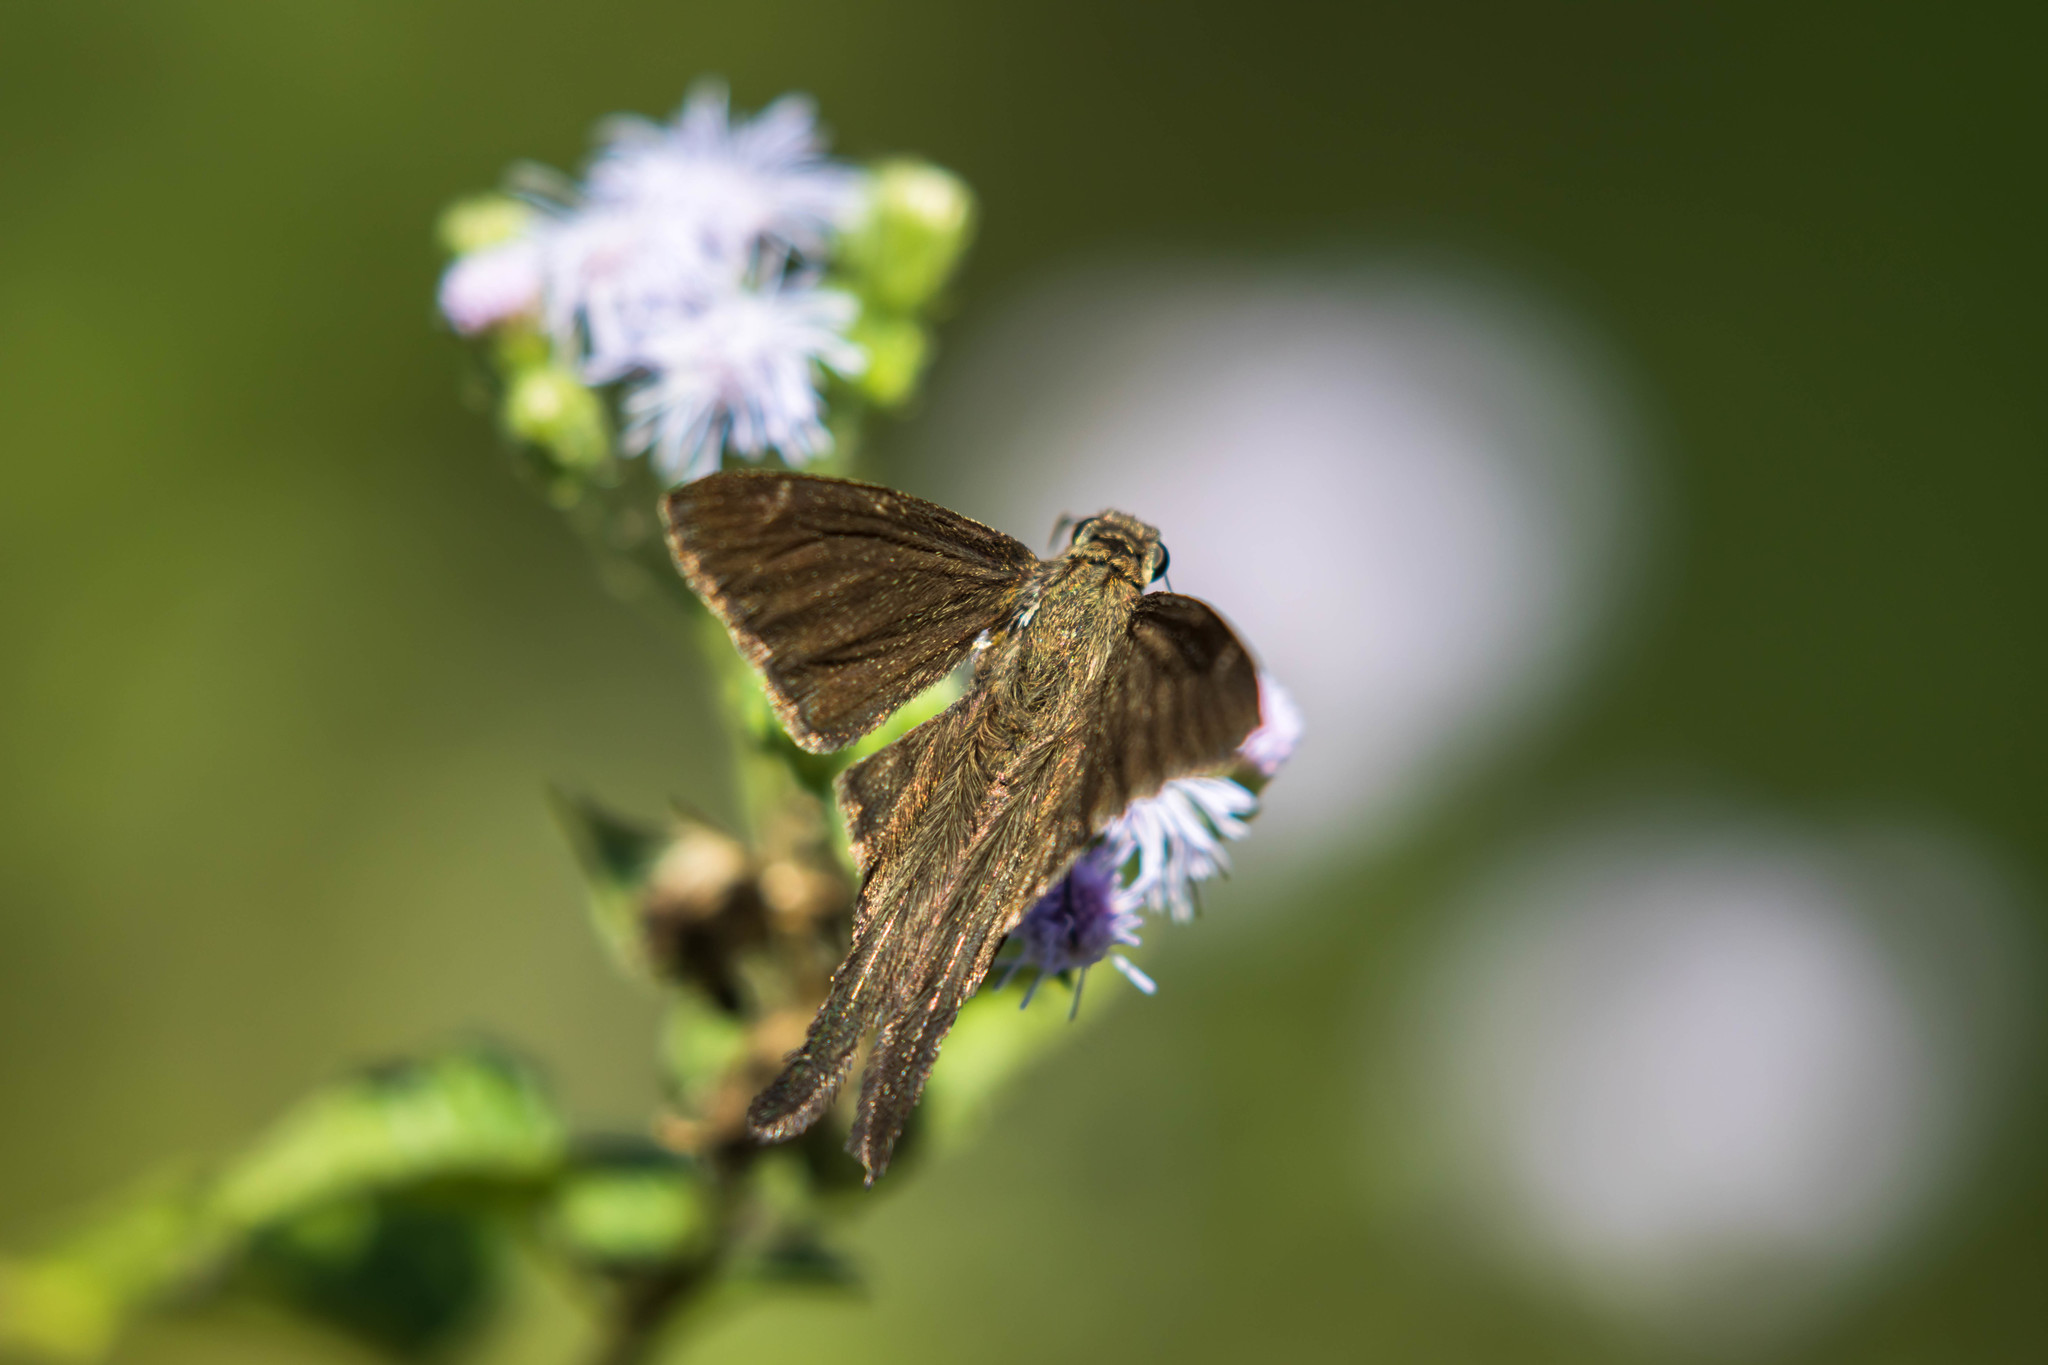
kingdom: Animalia
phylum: Arthropoda
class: Insecta
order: Lepidoptera
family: Hesperiidae
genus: Urbanus
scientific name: Urbanus procne
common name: Brown longtail
